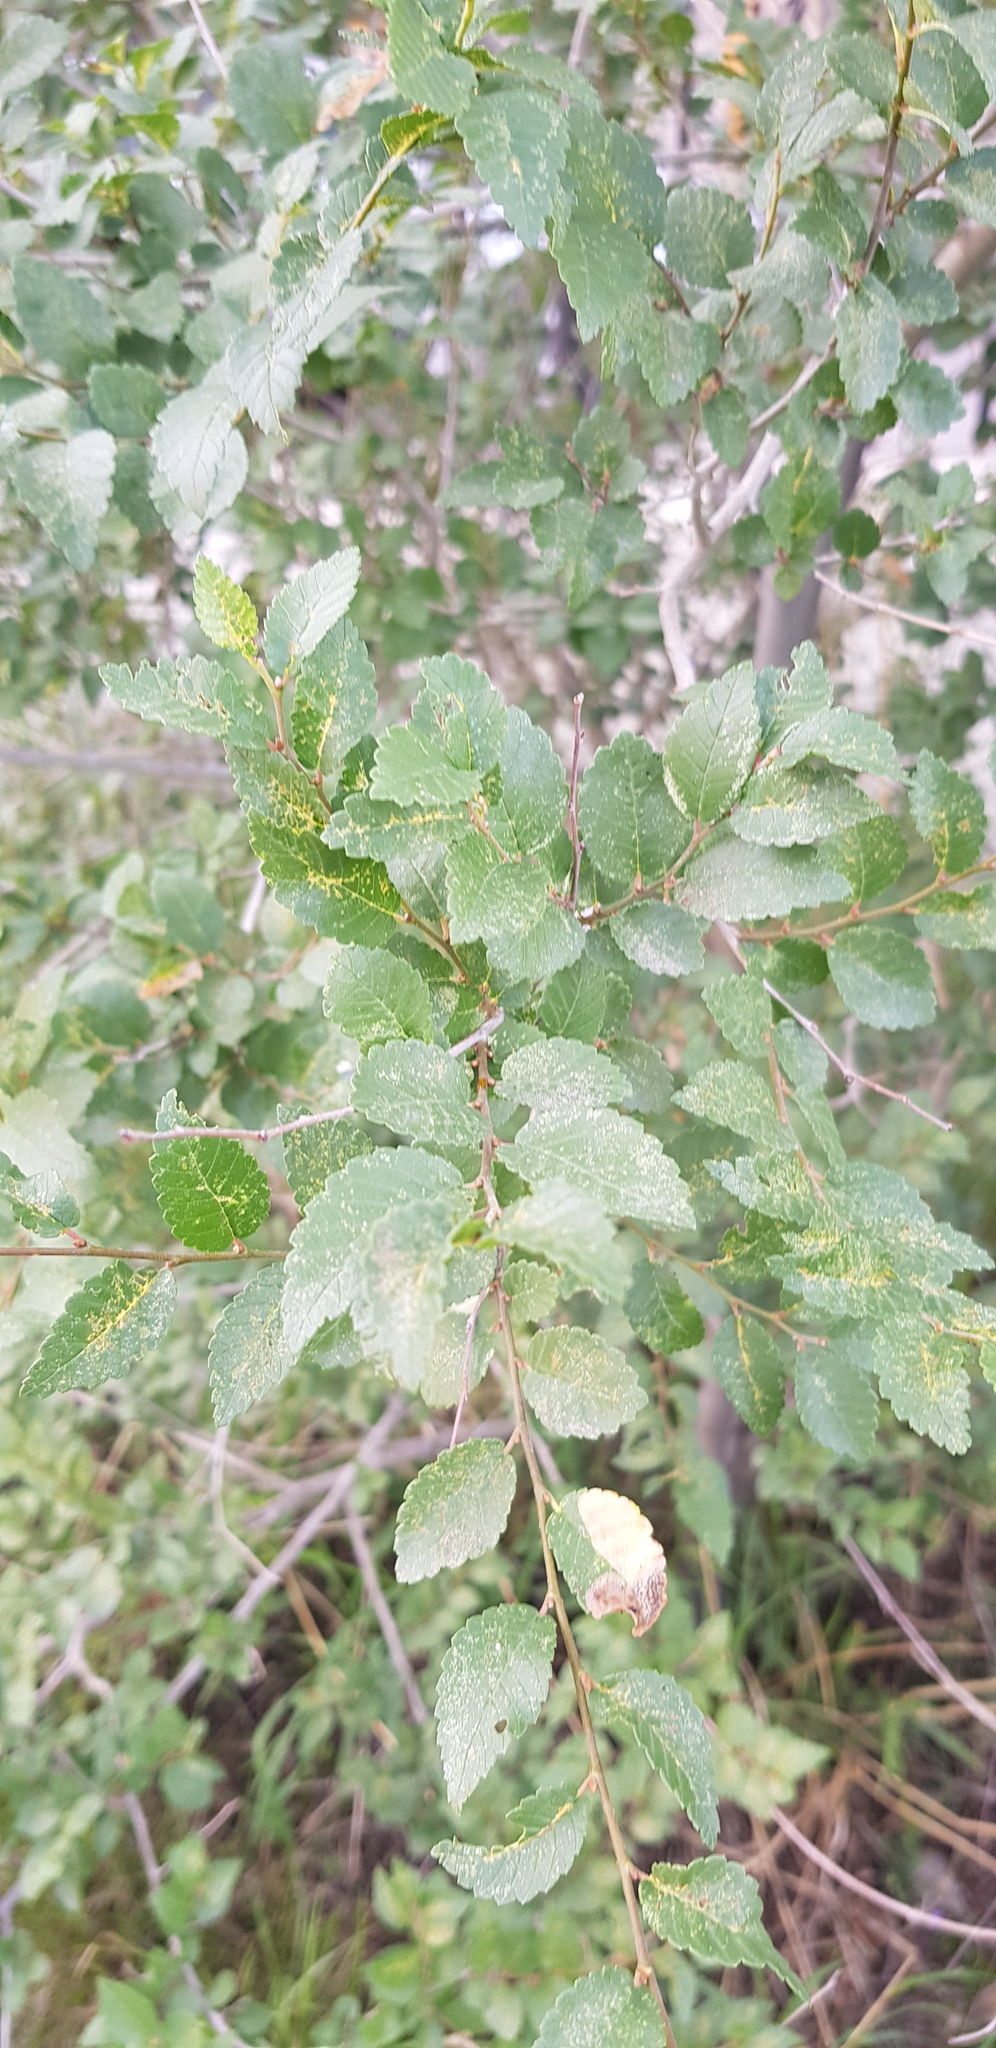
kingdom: Plantae
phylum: Tracheophyta
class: Magnoliopsida
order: Rosales
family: Ulmaceae
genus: Ulmus
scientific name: Ulmus pumila
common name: Siberian elm
